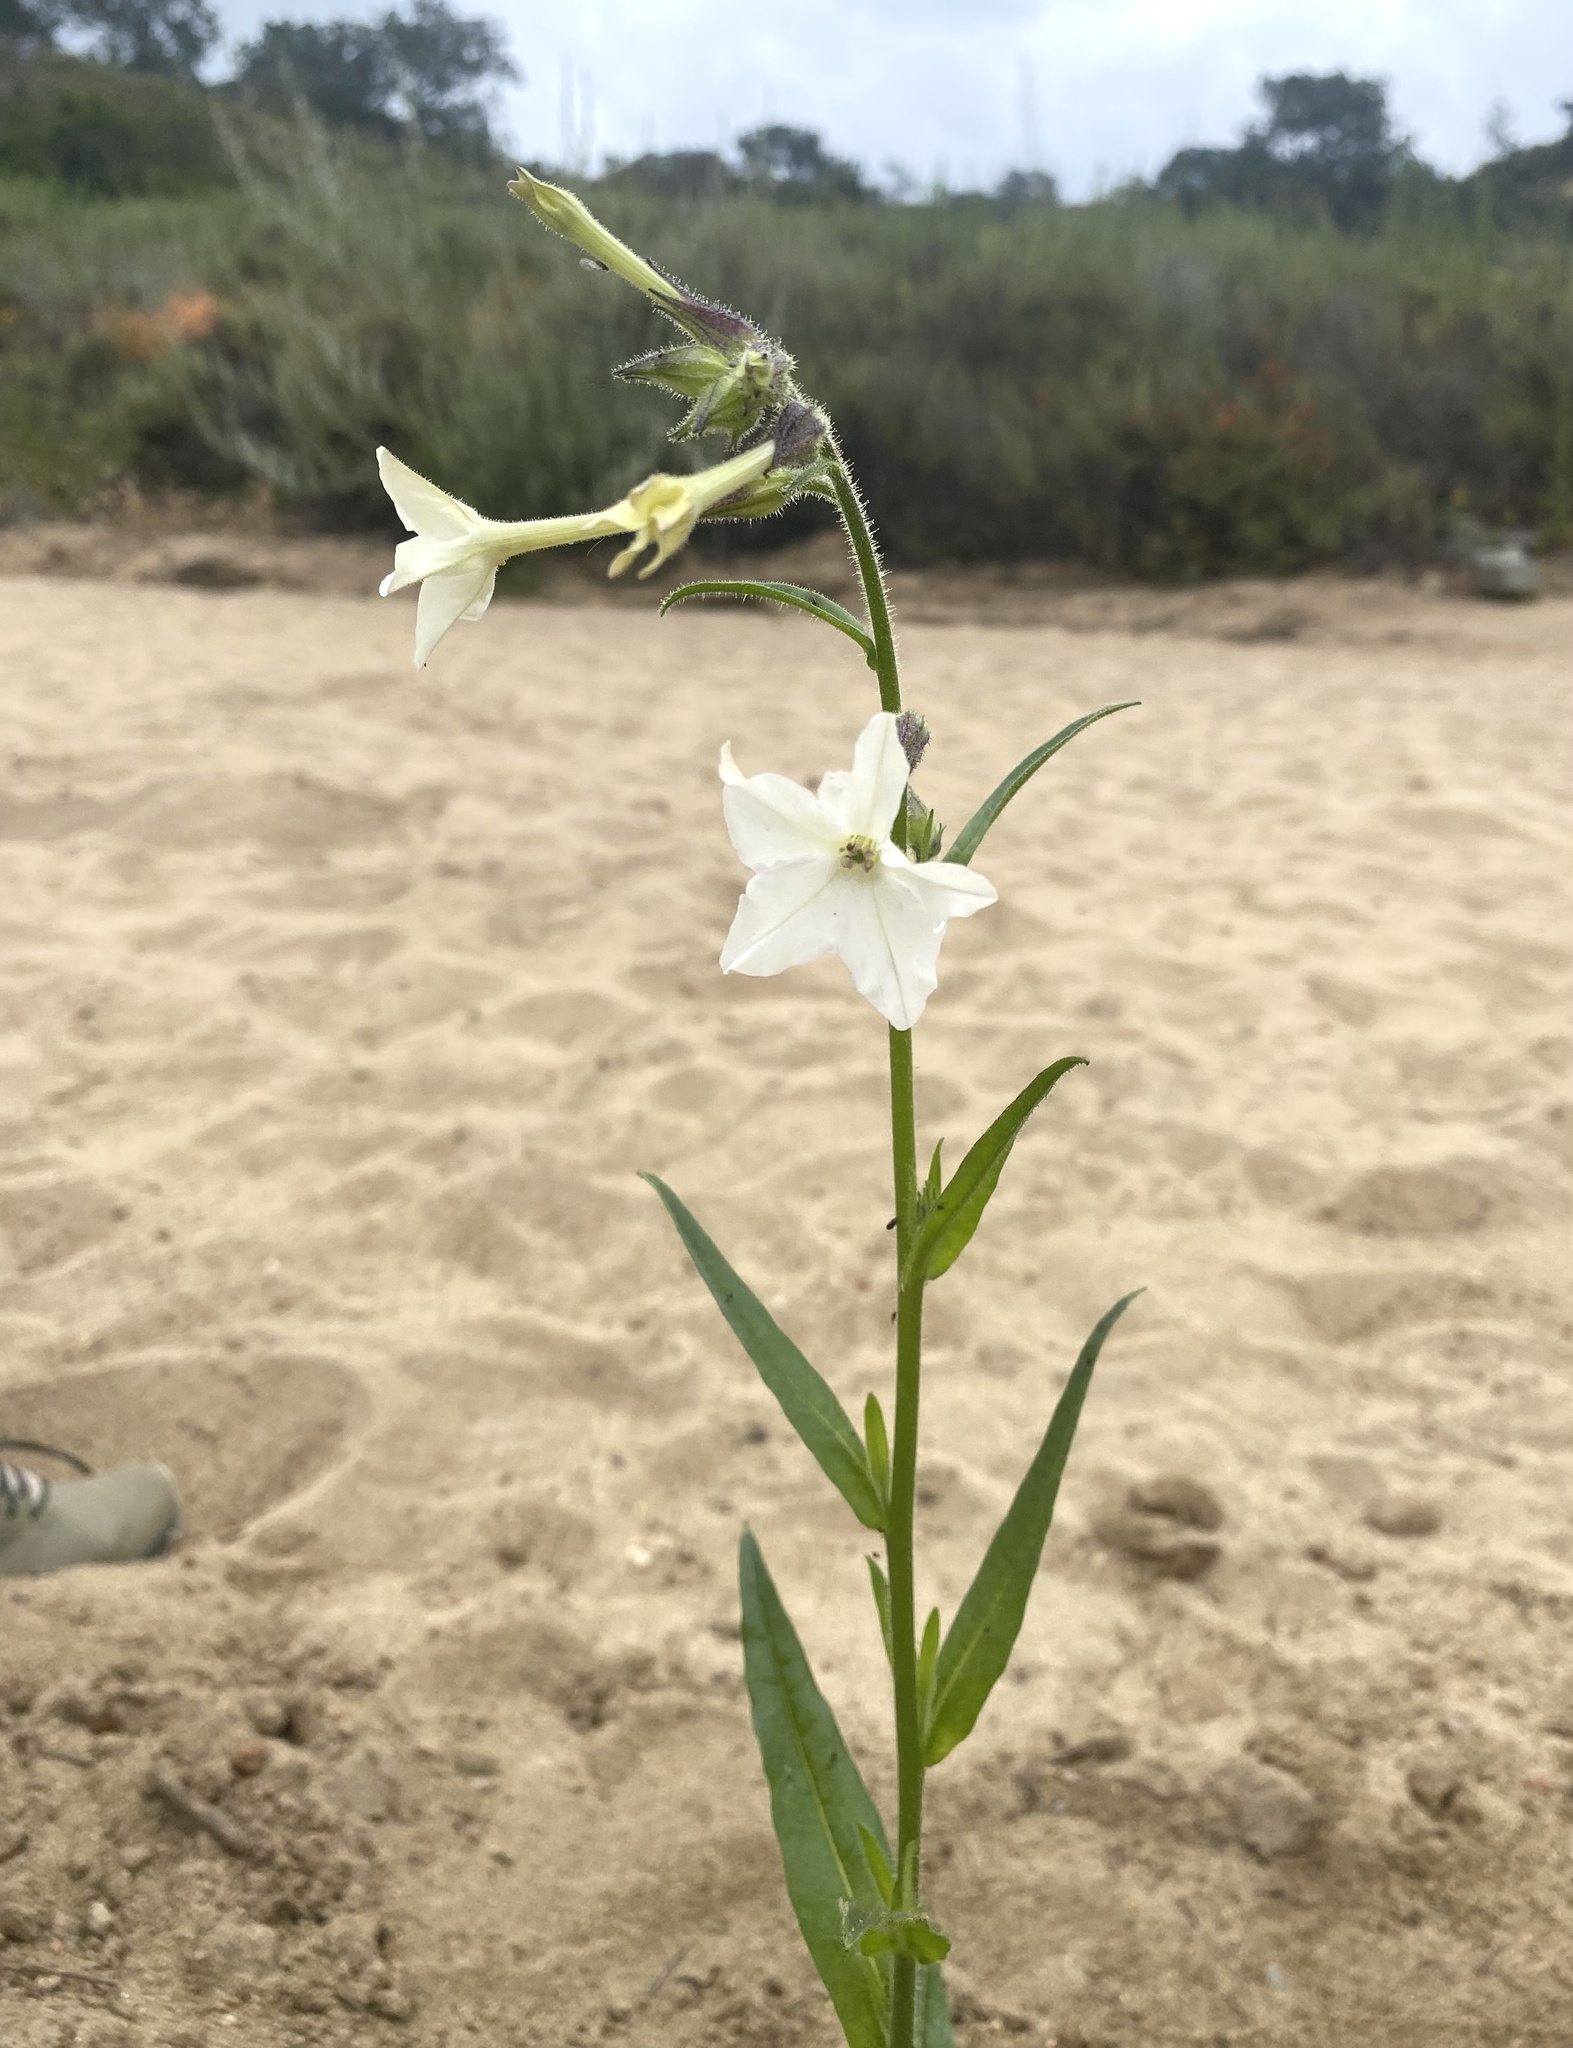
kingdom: Plantae
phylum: Tracheophyta
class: Magnoliopsida
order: Solanales
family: Solanaceae
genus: Nicotiana
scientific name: Nicotiana quadrivalvis
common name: Indian tobacco
